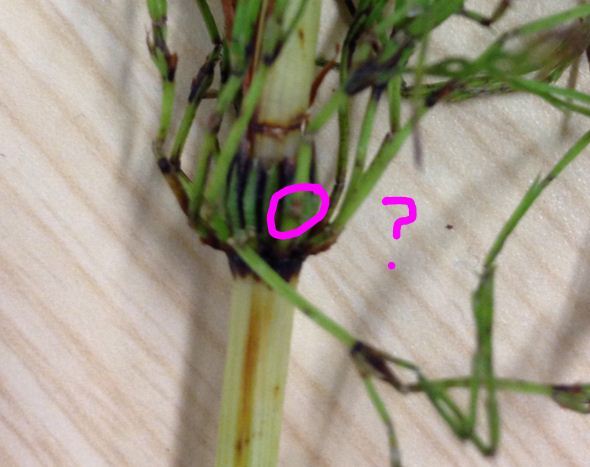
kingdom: Plantae
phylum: Tracheophyta
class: Polypodiopsida
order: Equisetales
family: Equisetaceae
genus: Equisetum
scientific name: Equisetum arvense
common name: Field horsetail
